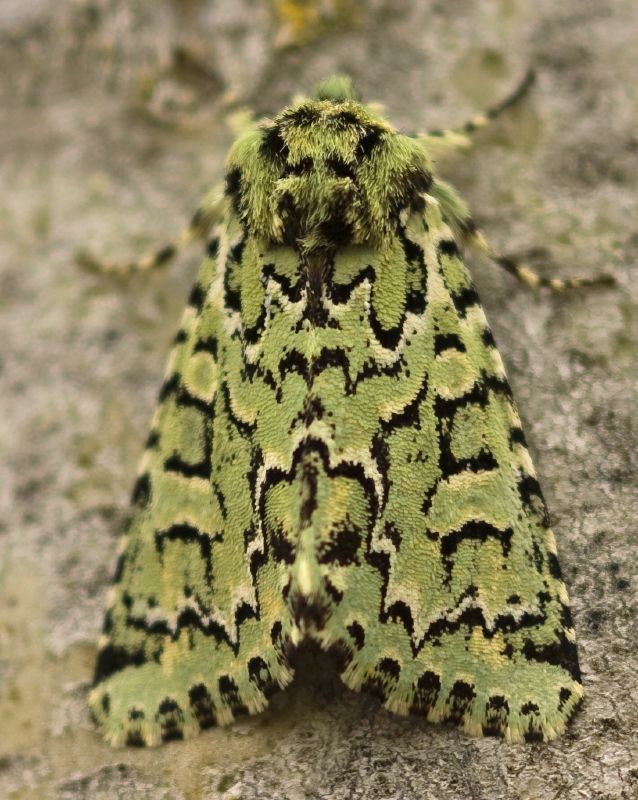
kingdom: Animalia
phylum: Arthropoda
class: Insecta
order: Lepidoptera
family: Noctuidae
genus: Feralia
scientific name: Feralia comstocki
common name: Comstock's sallow
